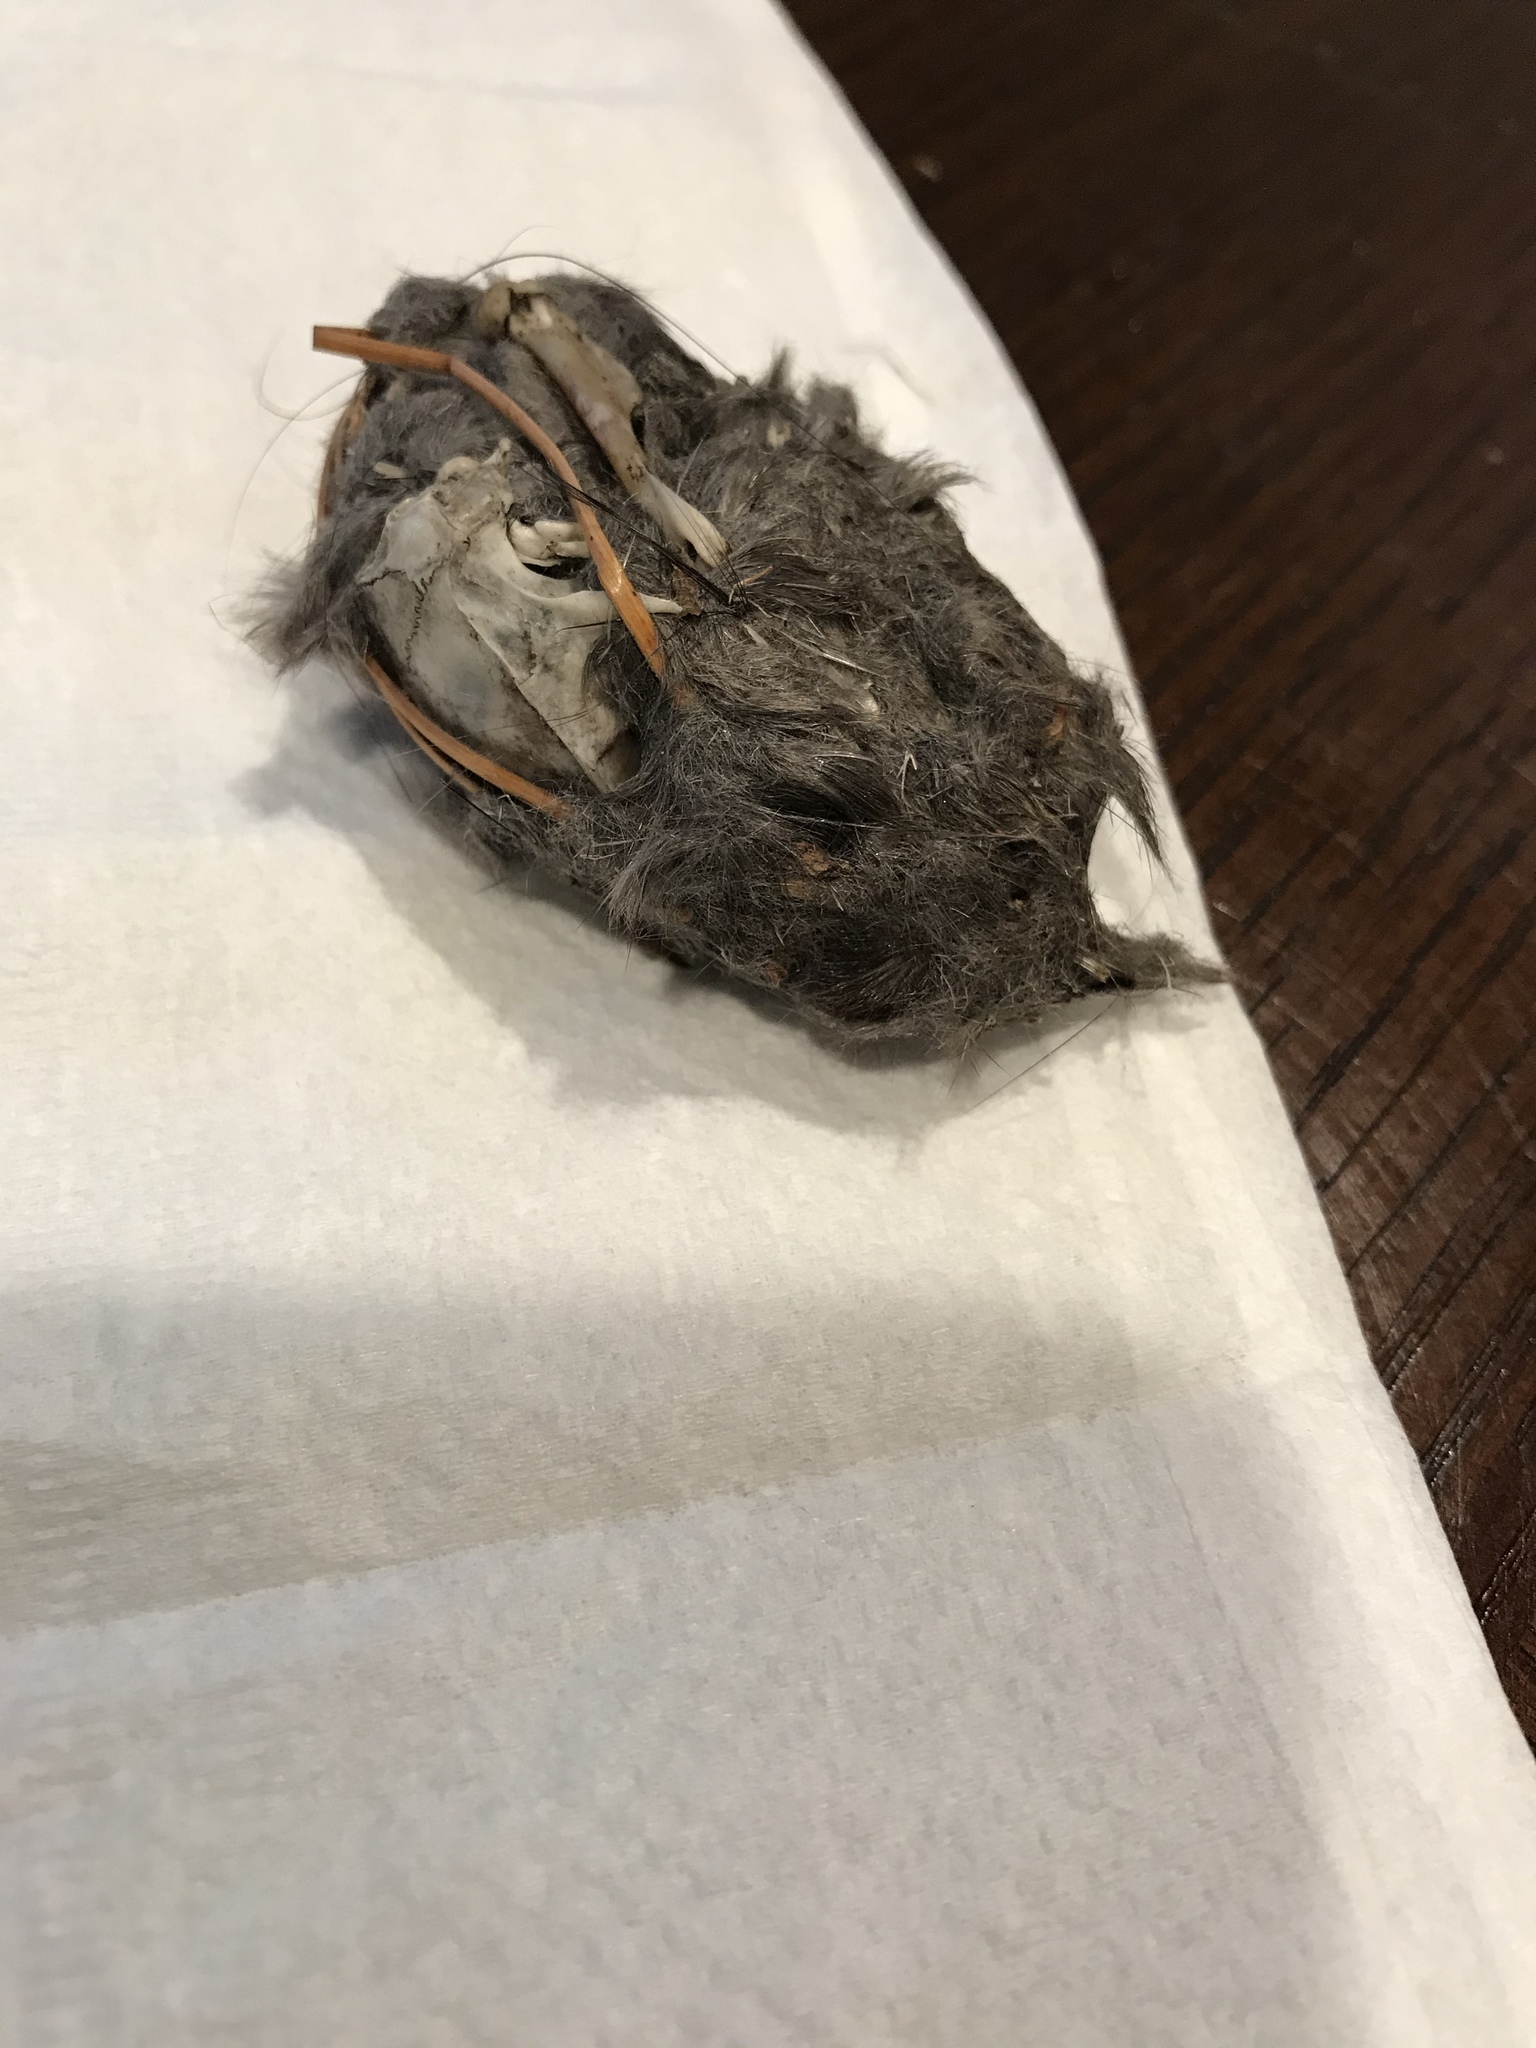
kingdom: Animalia
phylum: Chordata
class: Mammalia
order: Rodentia
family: Muridae
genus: Rattus
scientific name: Rattus rattus
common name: Black rat
